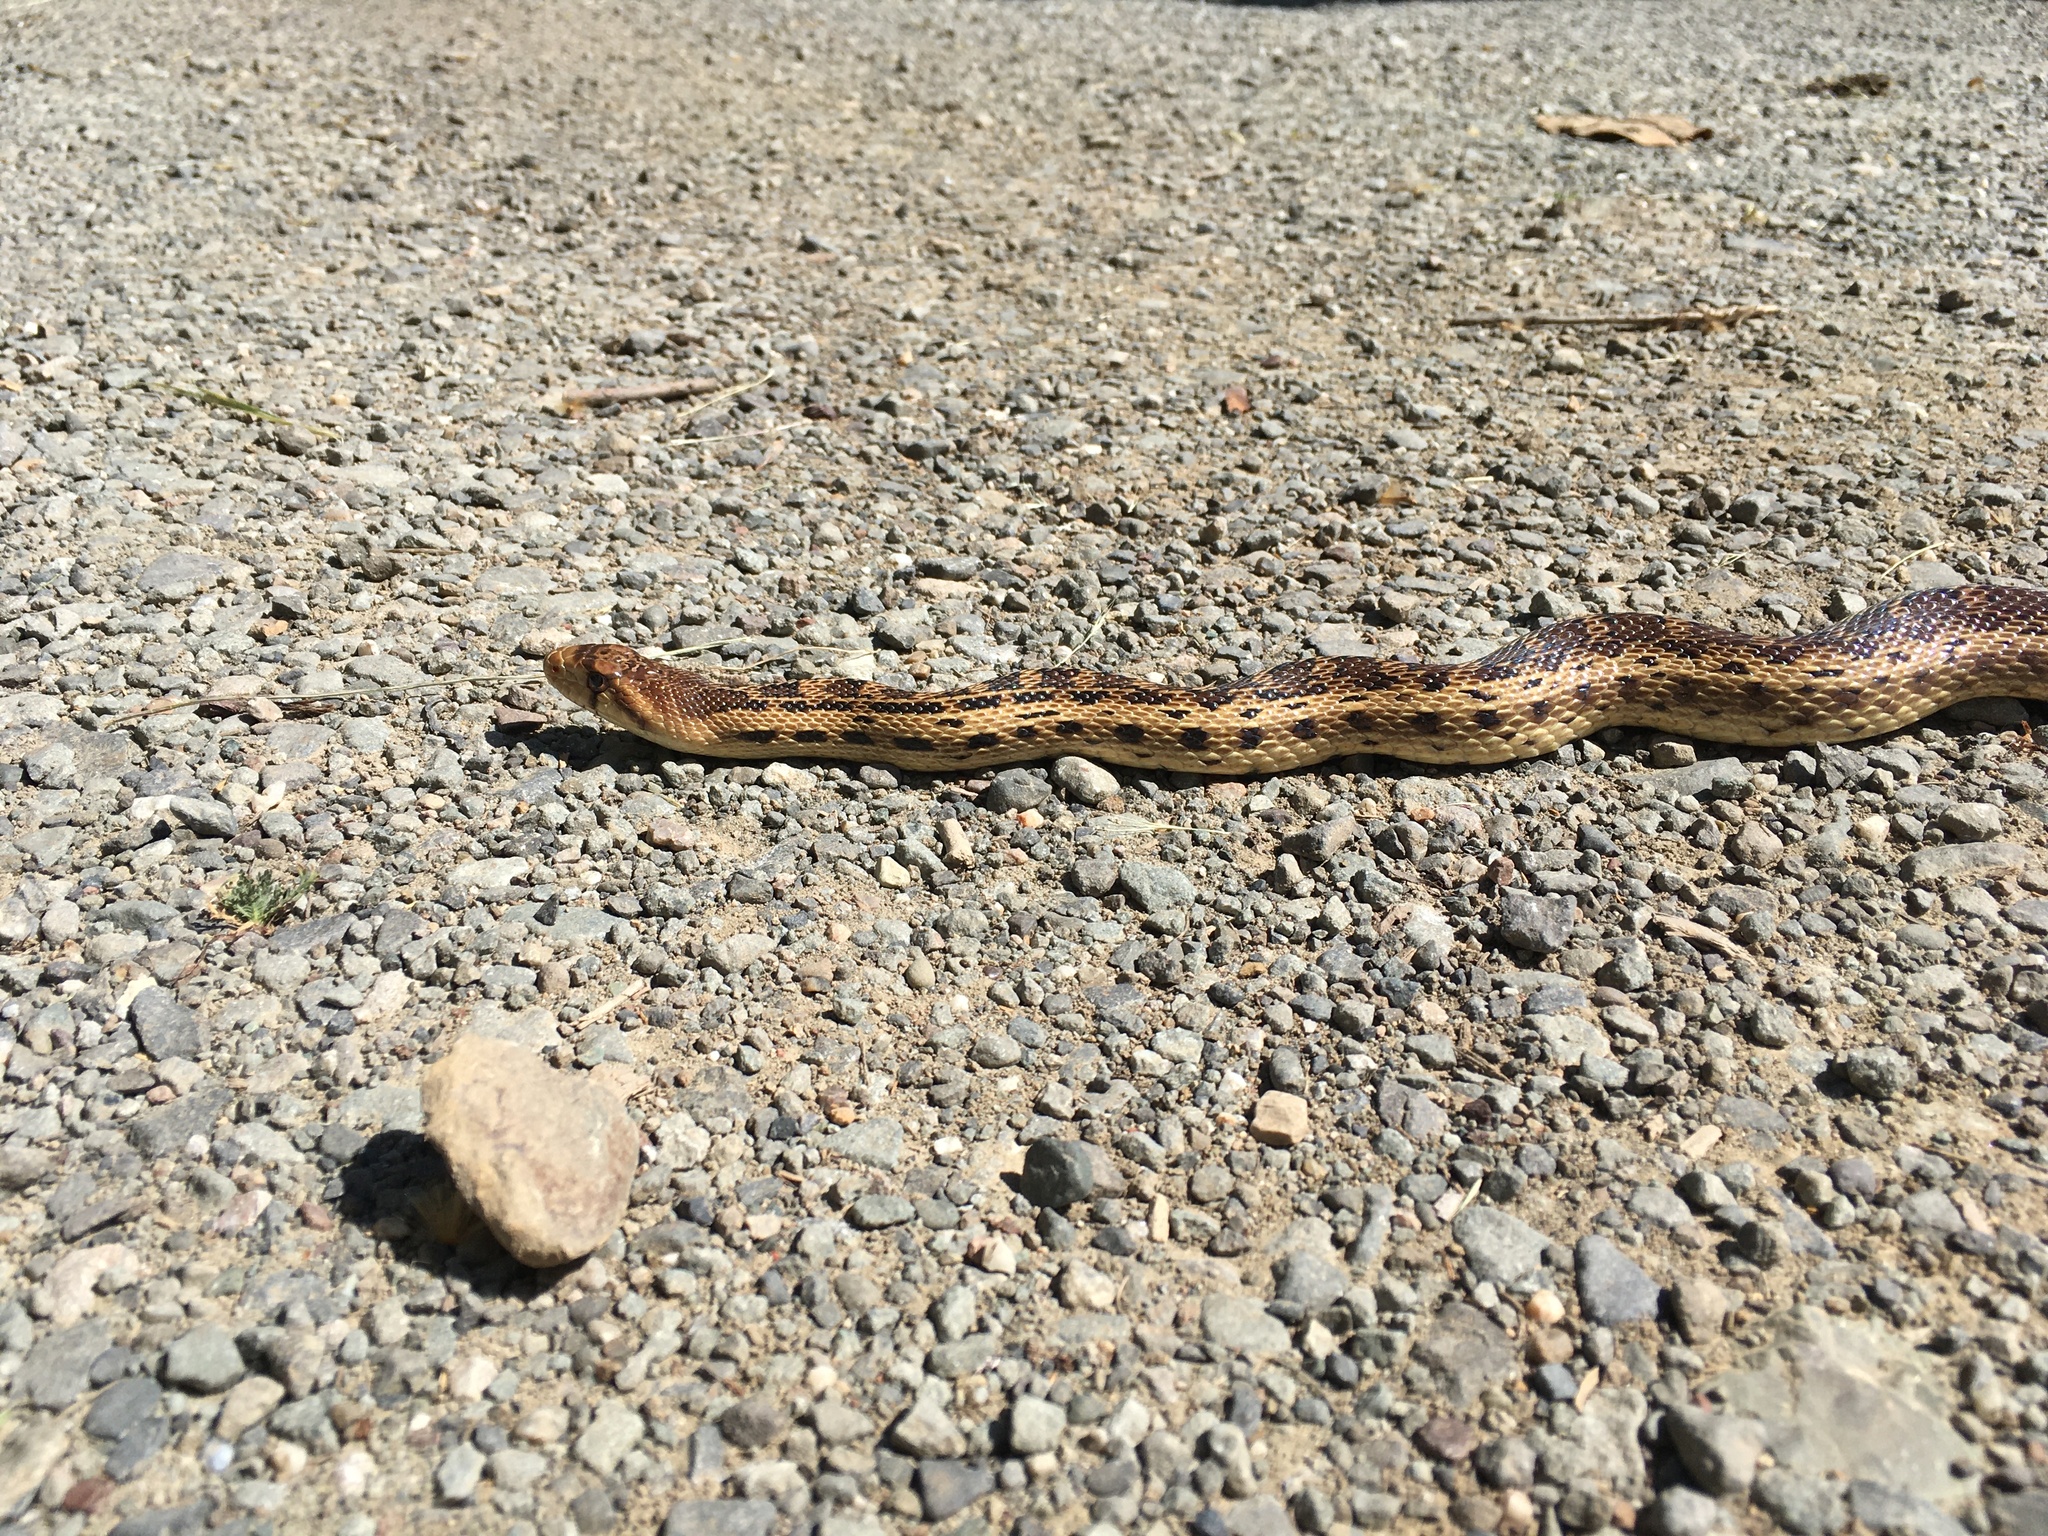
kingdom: Animalia
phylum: Chordata
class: Squamata
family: Colubridae
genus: Pituophis
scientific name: Pituophis catenifer
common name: Gopher snake
